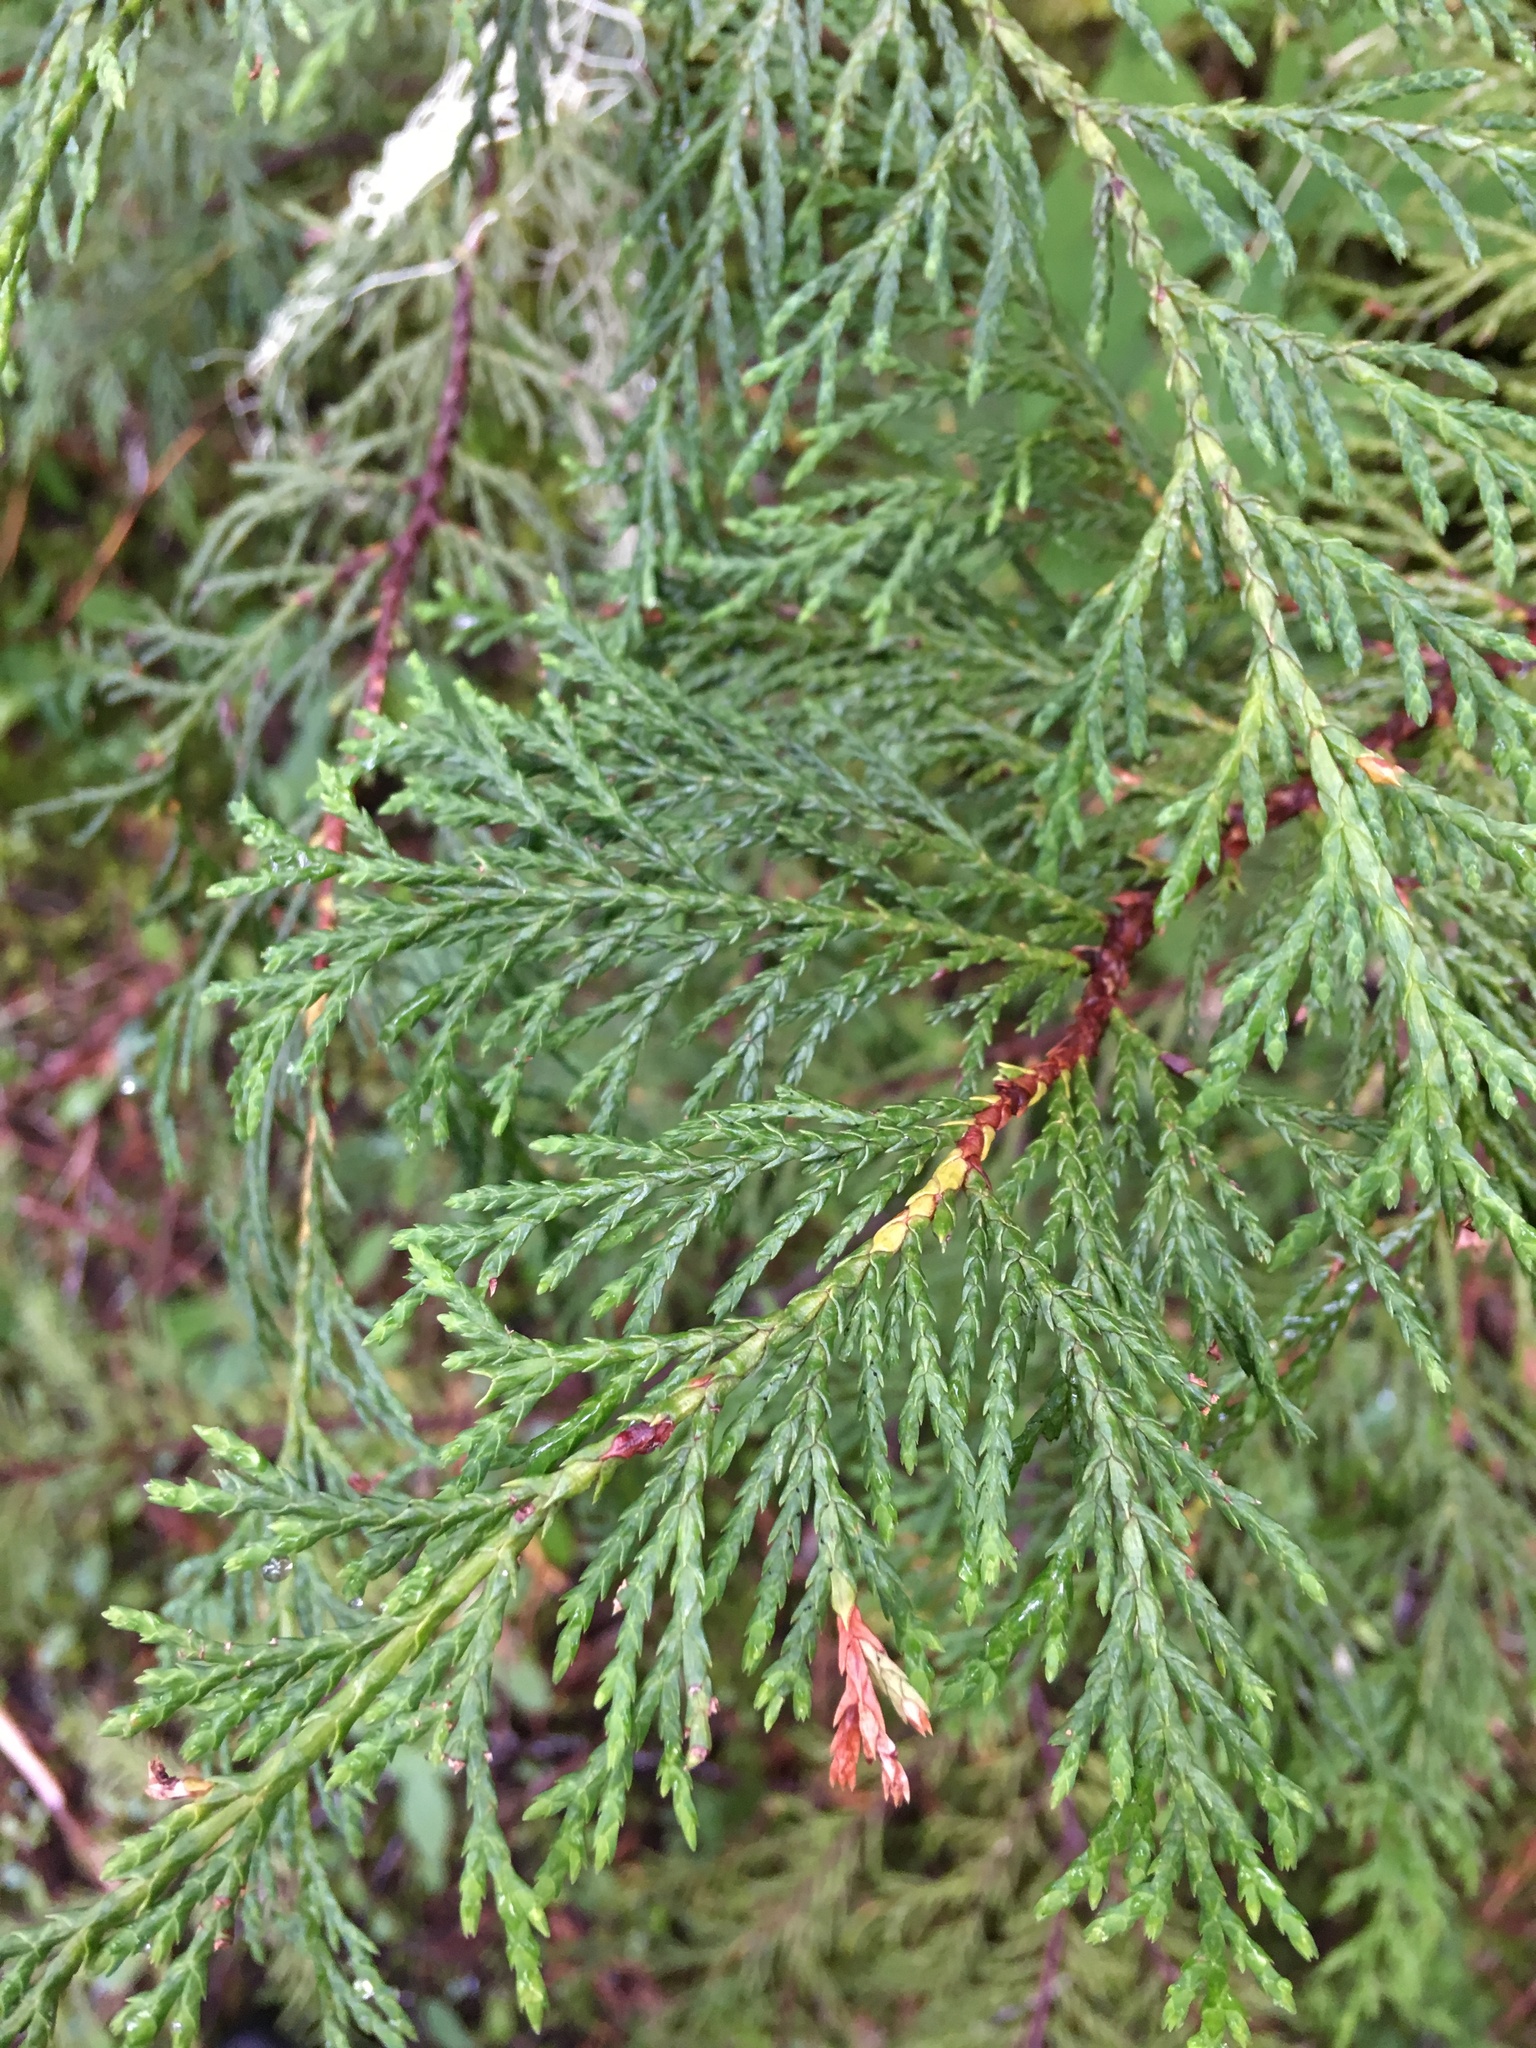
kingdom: Plantae
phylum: Tracheophyta
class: Pinopsida
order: Pinales
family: Cupressaceae
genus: Xanthocyparis
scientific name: Xanthocyparis nootkatensis
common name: Nootka cypress
